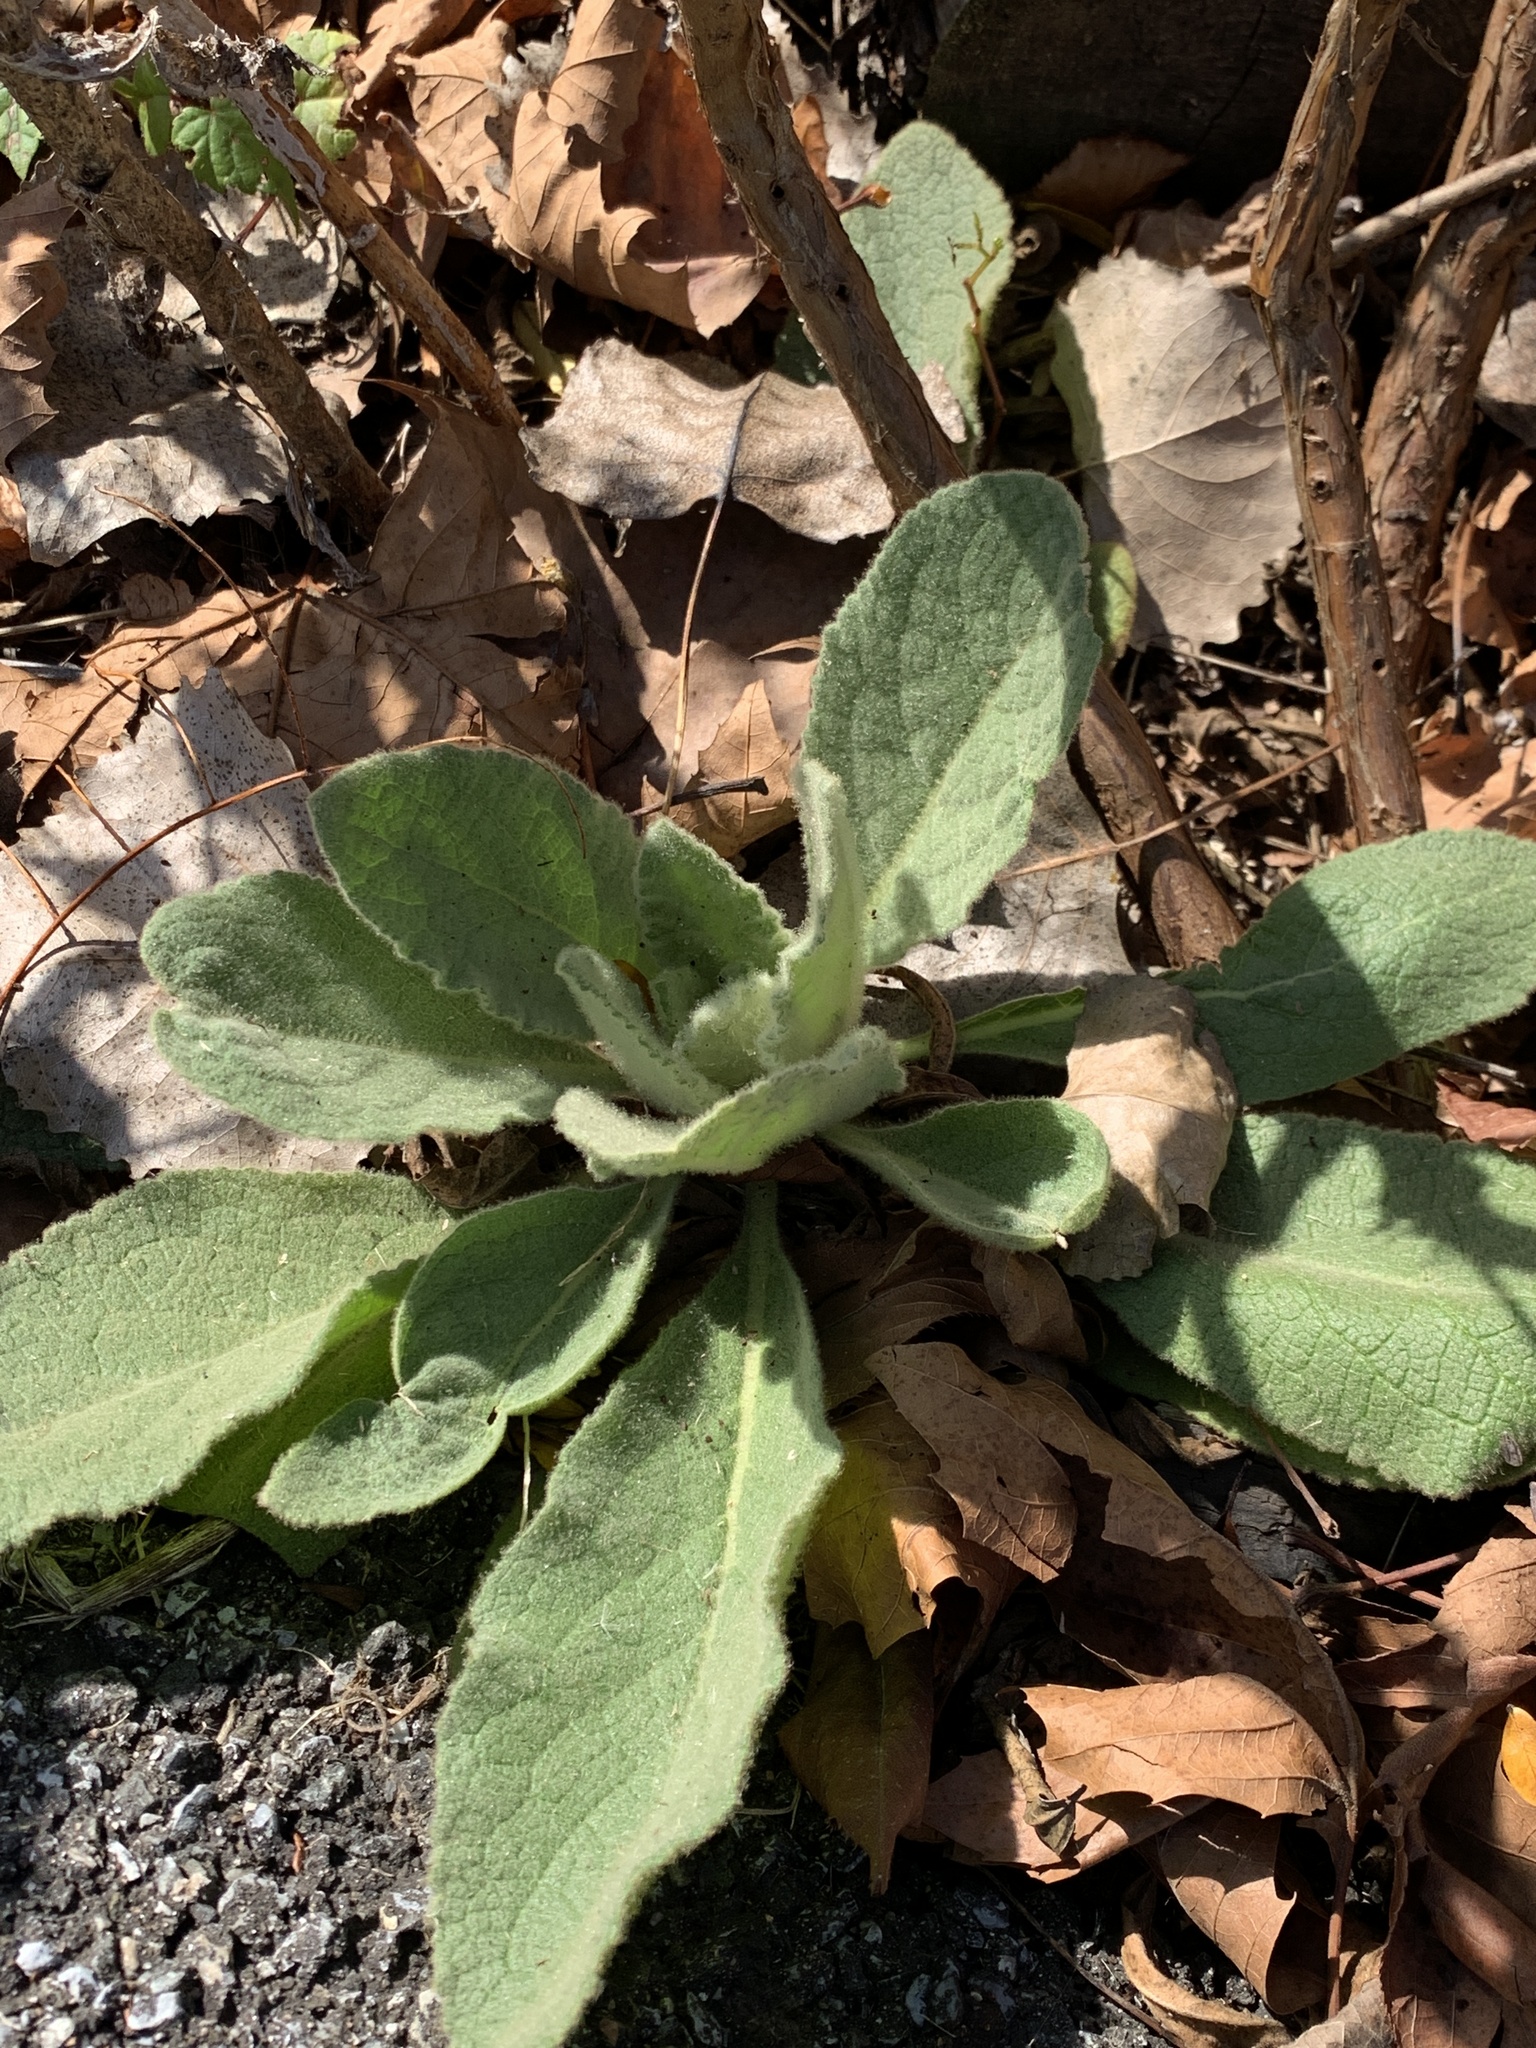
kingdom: Plantae
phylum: Tracheophyta
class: Magnoliopsida
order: Lamiales
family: Scrophulariaceae
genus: Verbascum
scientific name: Verbascum thapsus
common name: Common mullein
